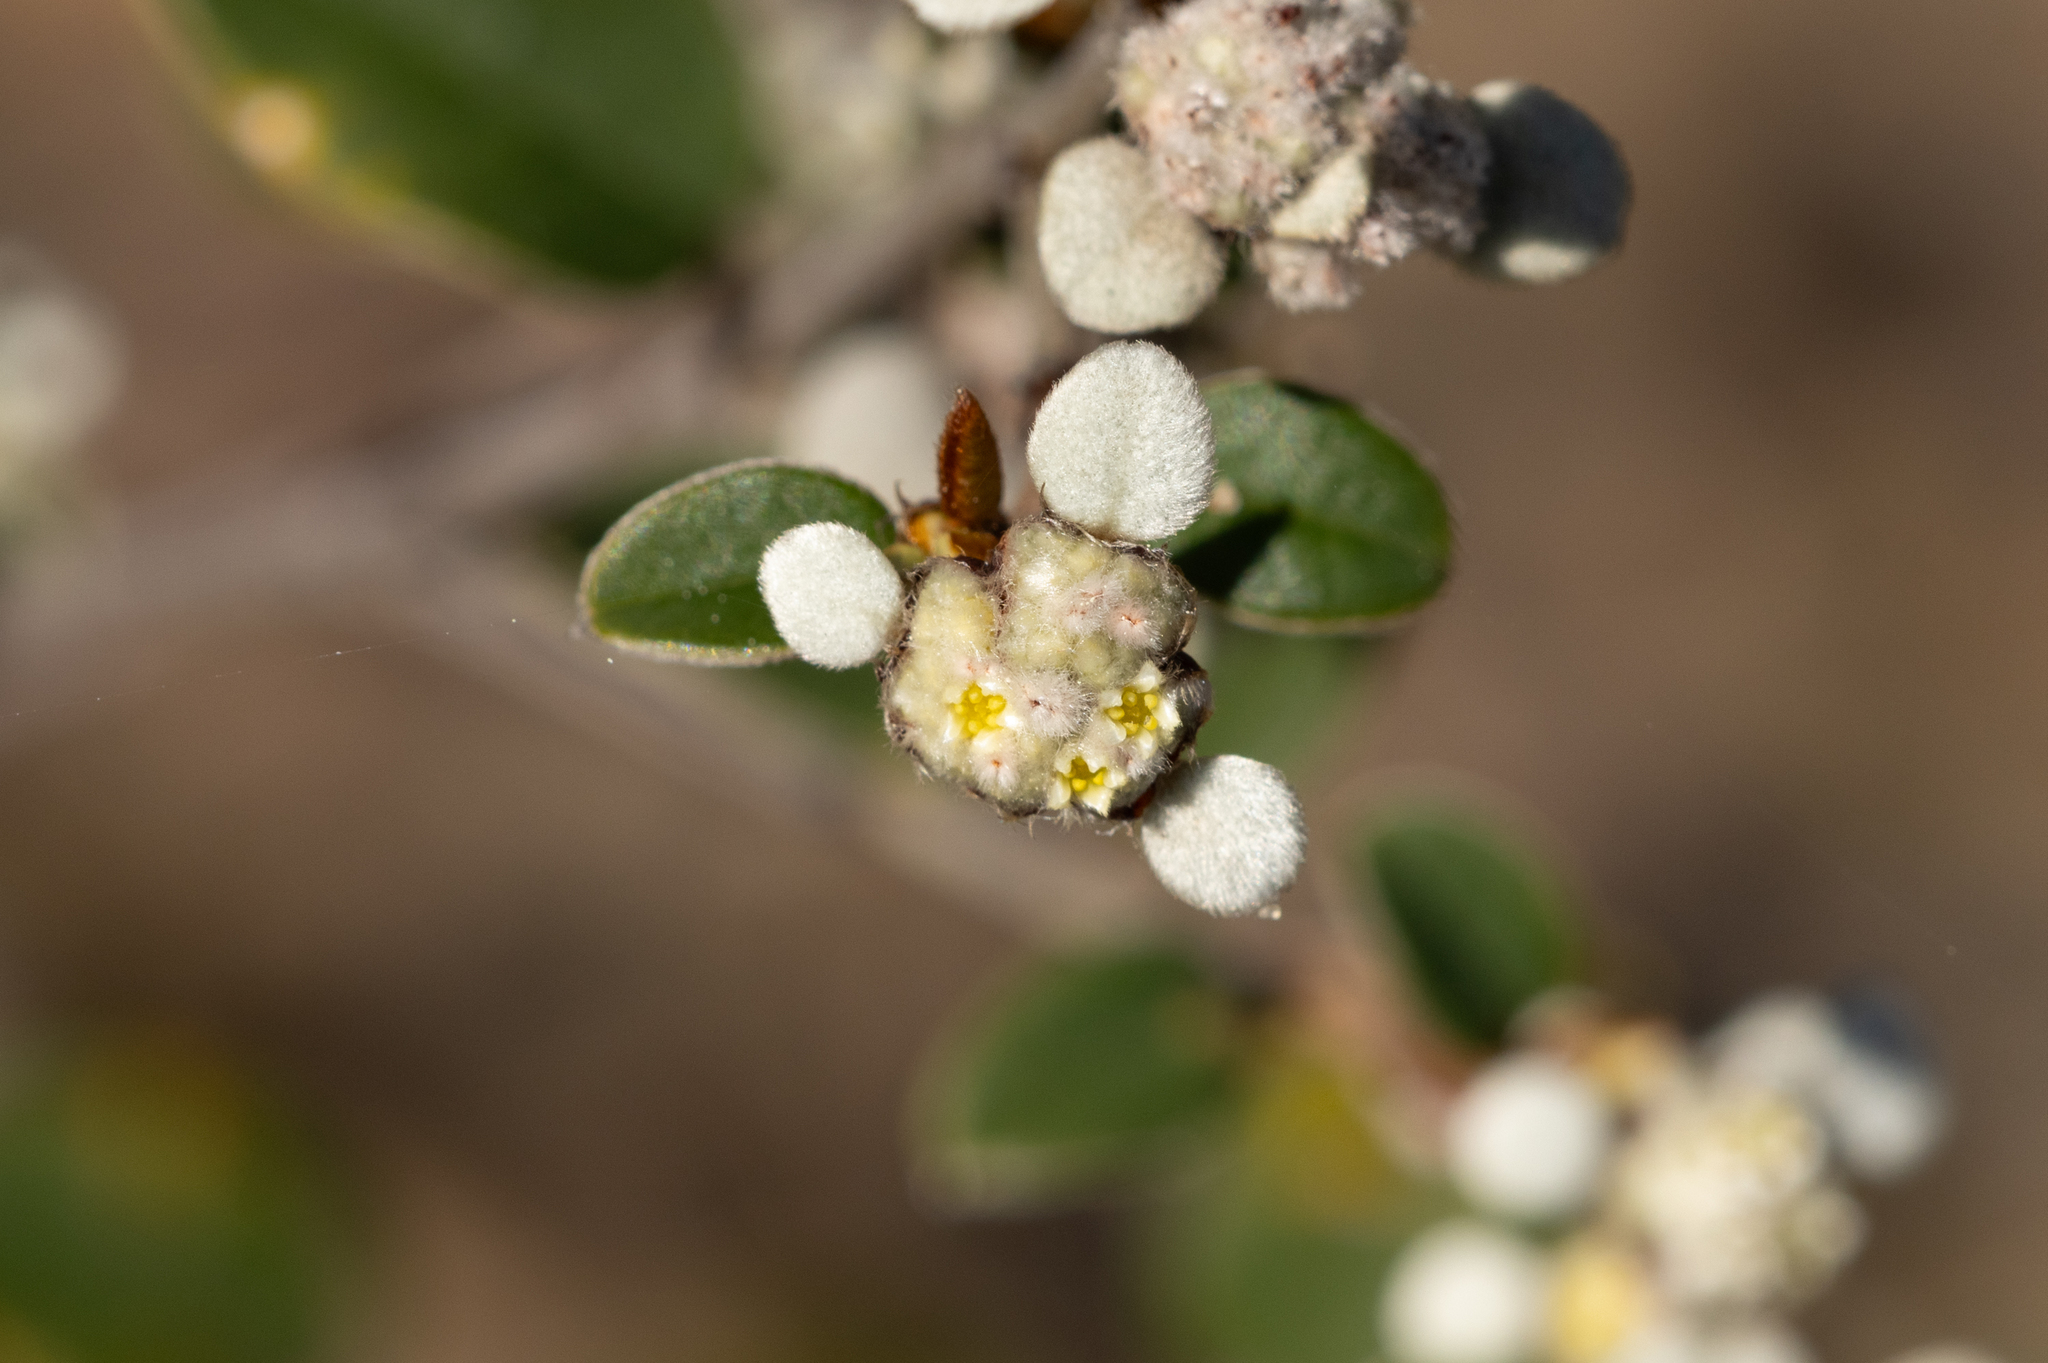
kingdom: Plantae
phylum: Tracheophyta
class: Magnoliopsida
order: Rosales
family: Rhamnaceae
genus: Spyridium
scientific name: Spyridium thymifolium
